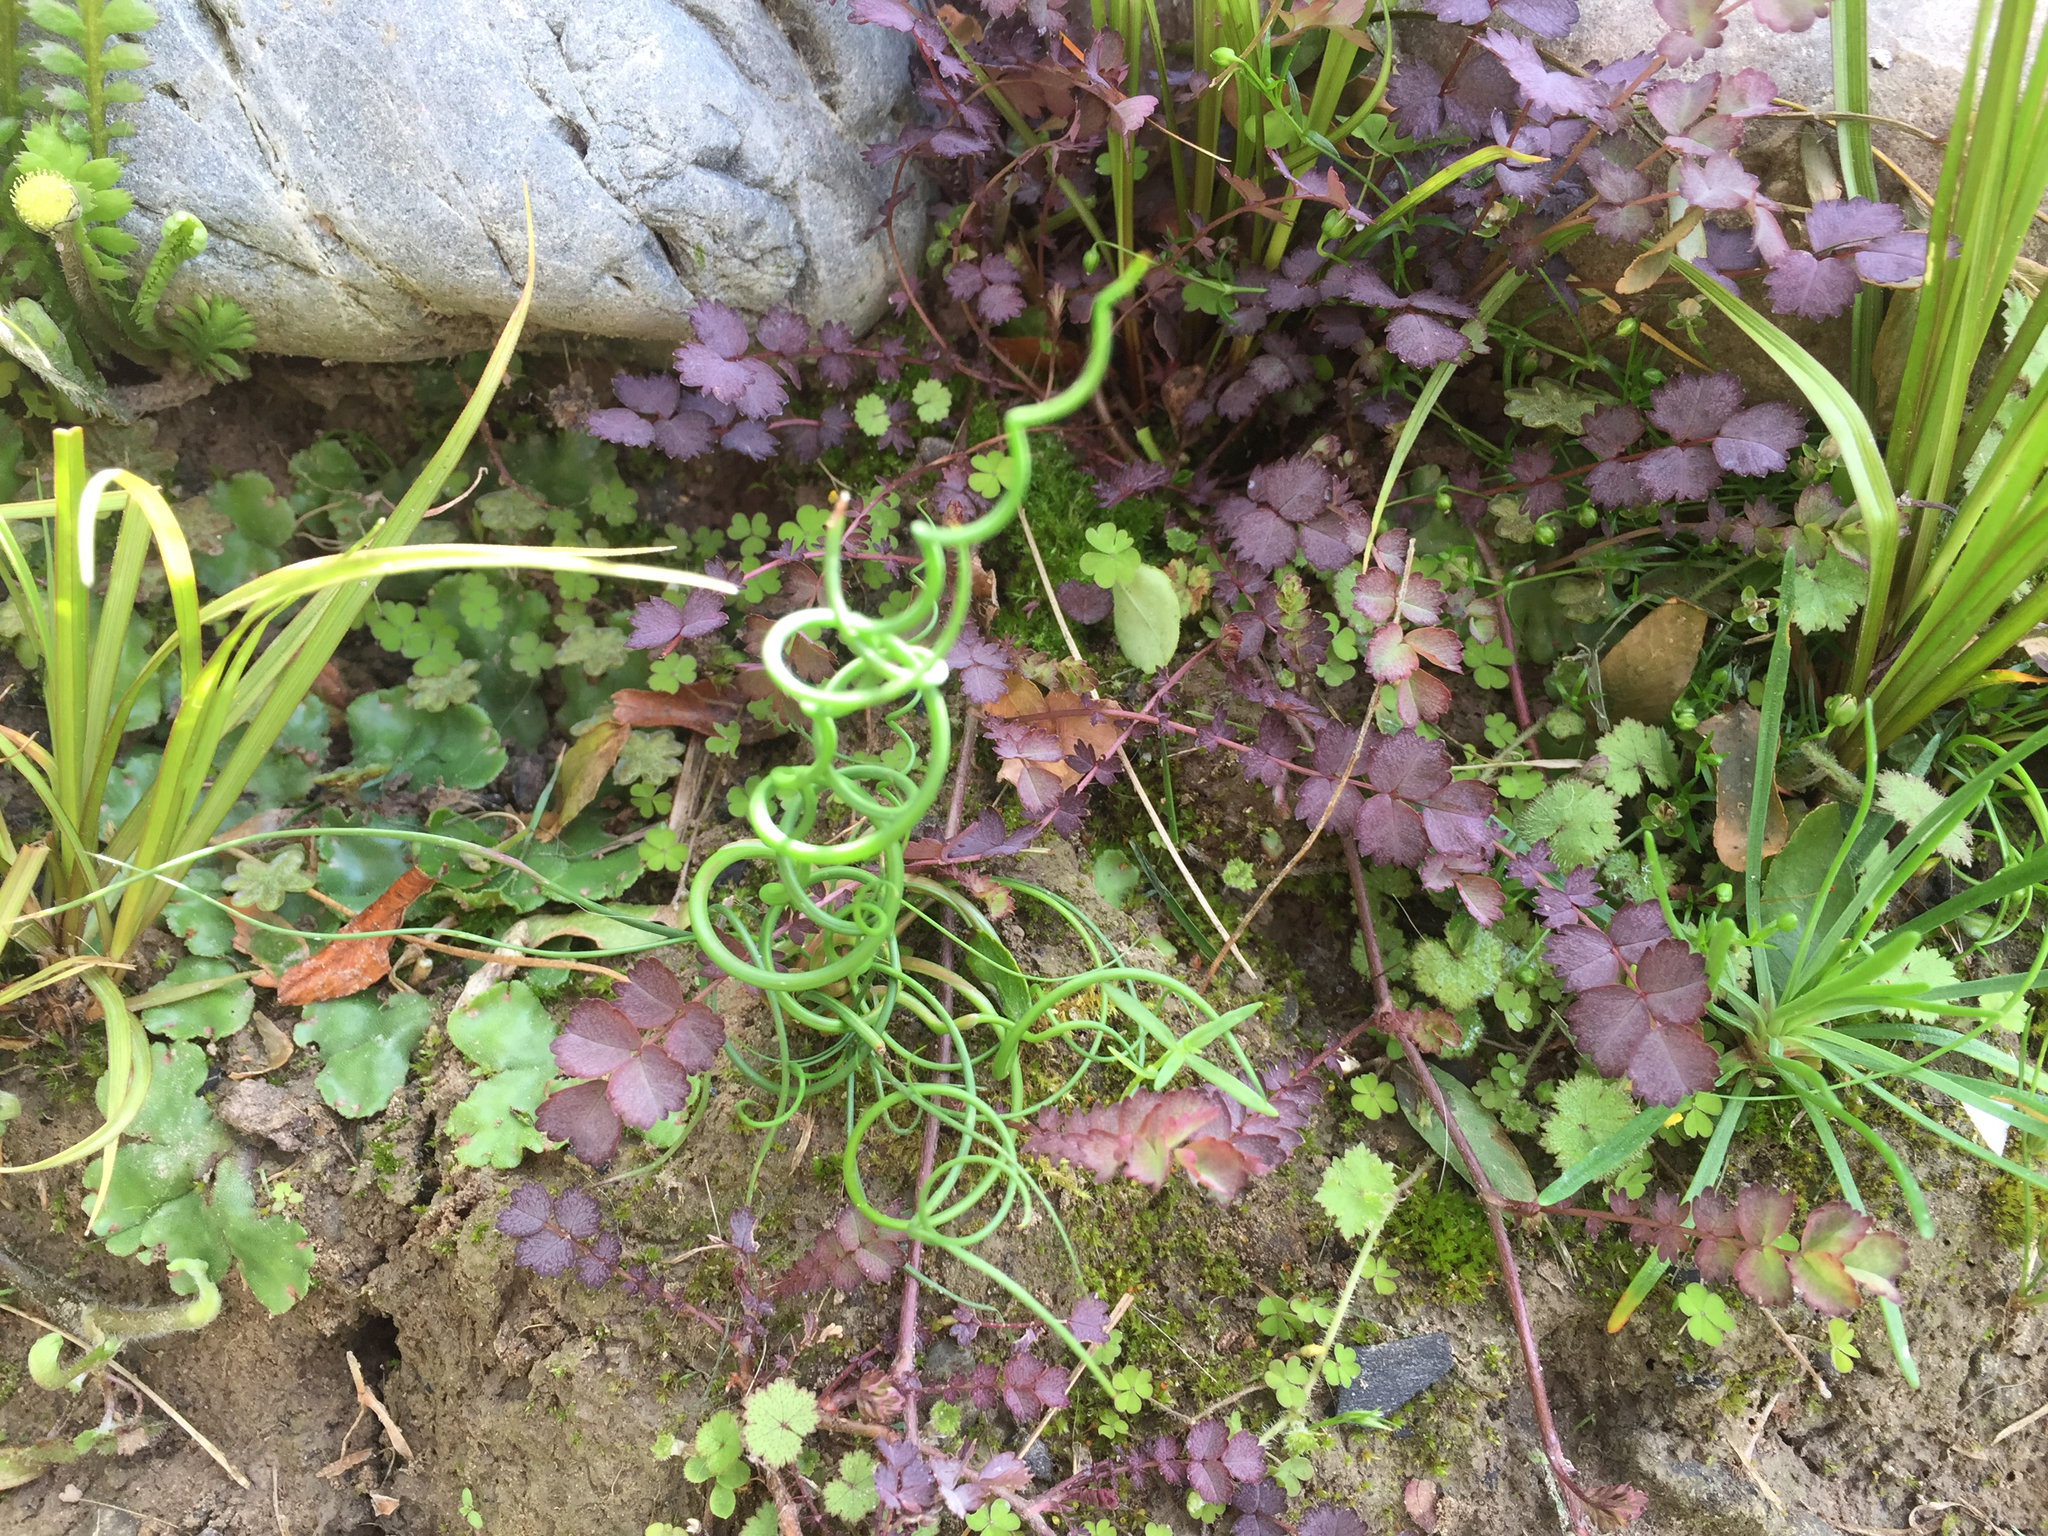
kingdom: Plantae
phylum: Tracheophyta
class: Liliopsida
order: Poales
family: Juncaceae
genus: Juncus
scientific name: Juncus effusus
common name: Soft rush
